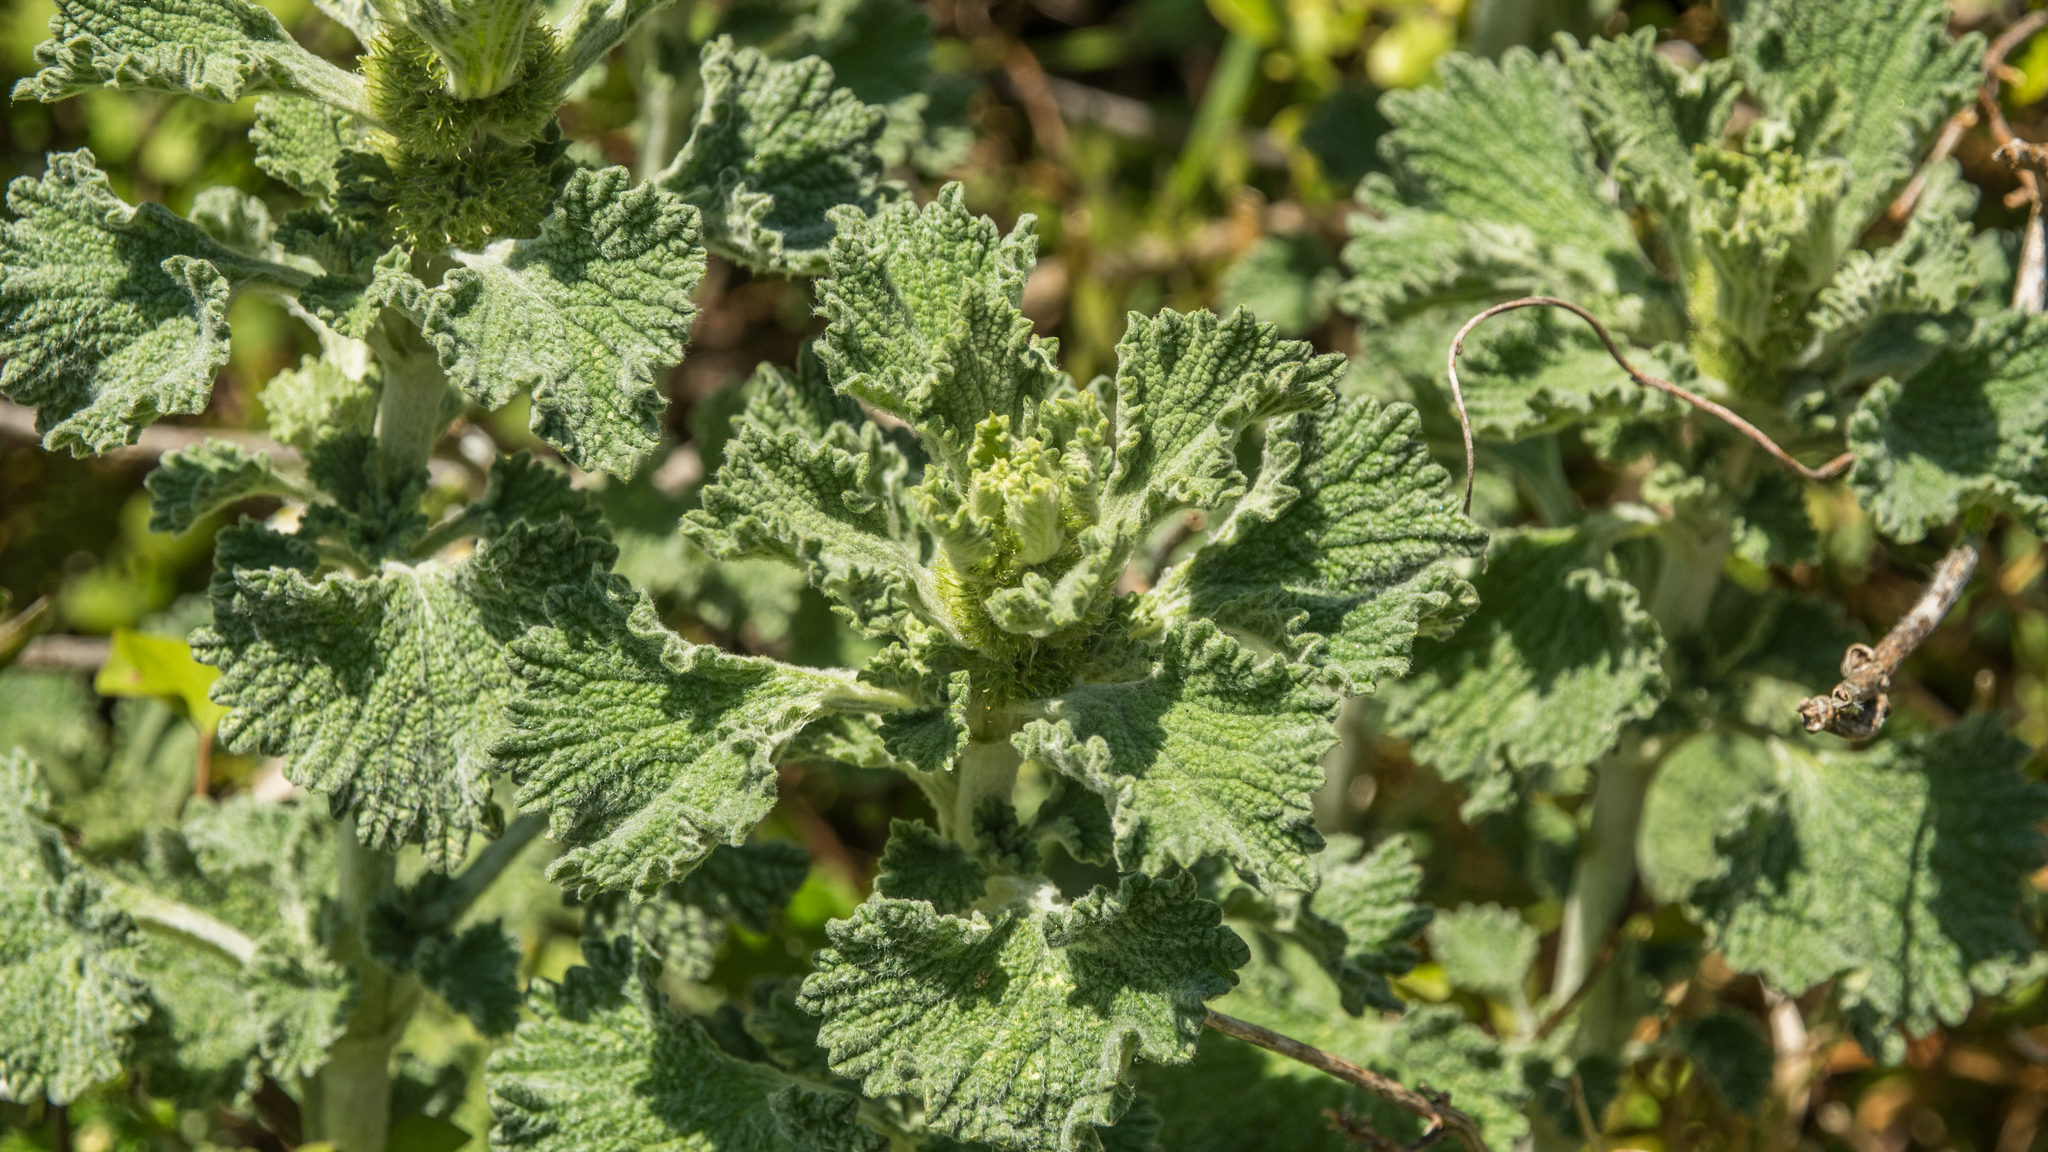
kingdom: Plantae
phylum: Tracheophyta
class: Magnoliopsida
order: Lamiales
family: Lamiaceae
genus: Marrubium
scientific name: Marrubium vulgare
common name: Horehound
